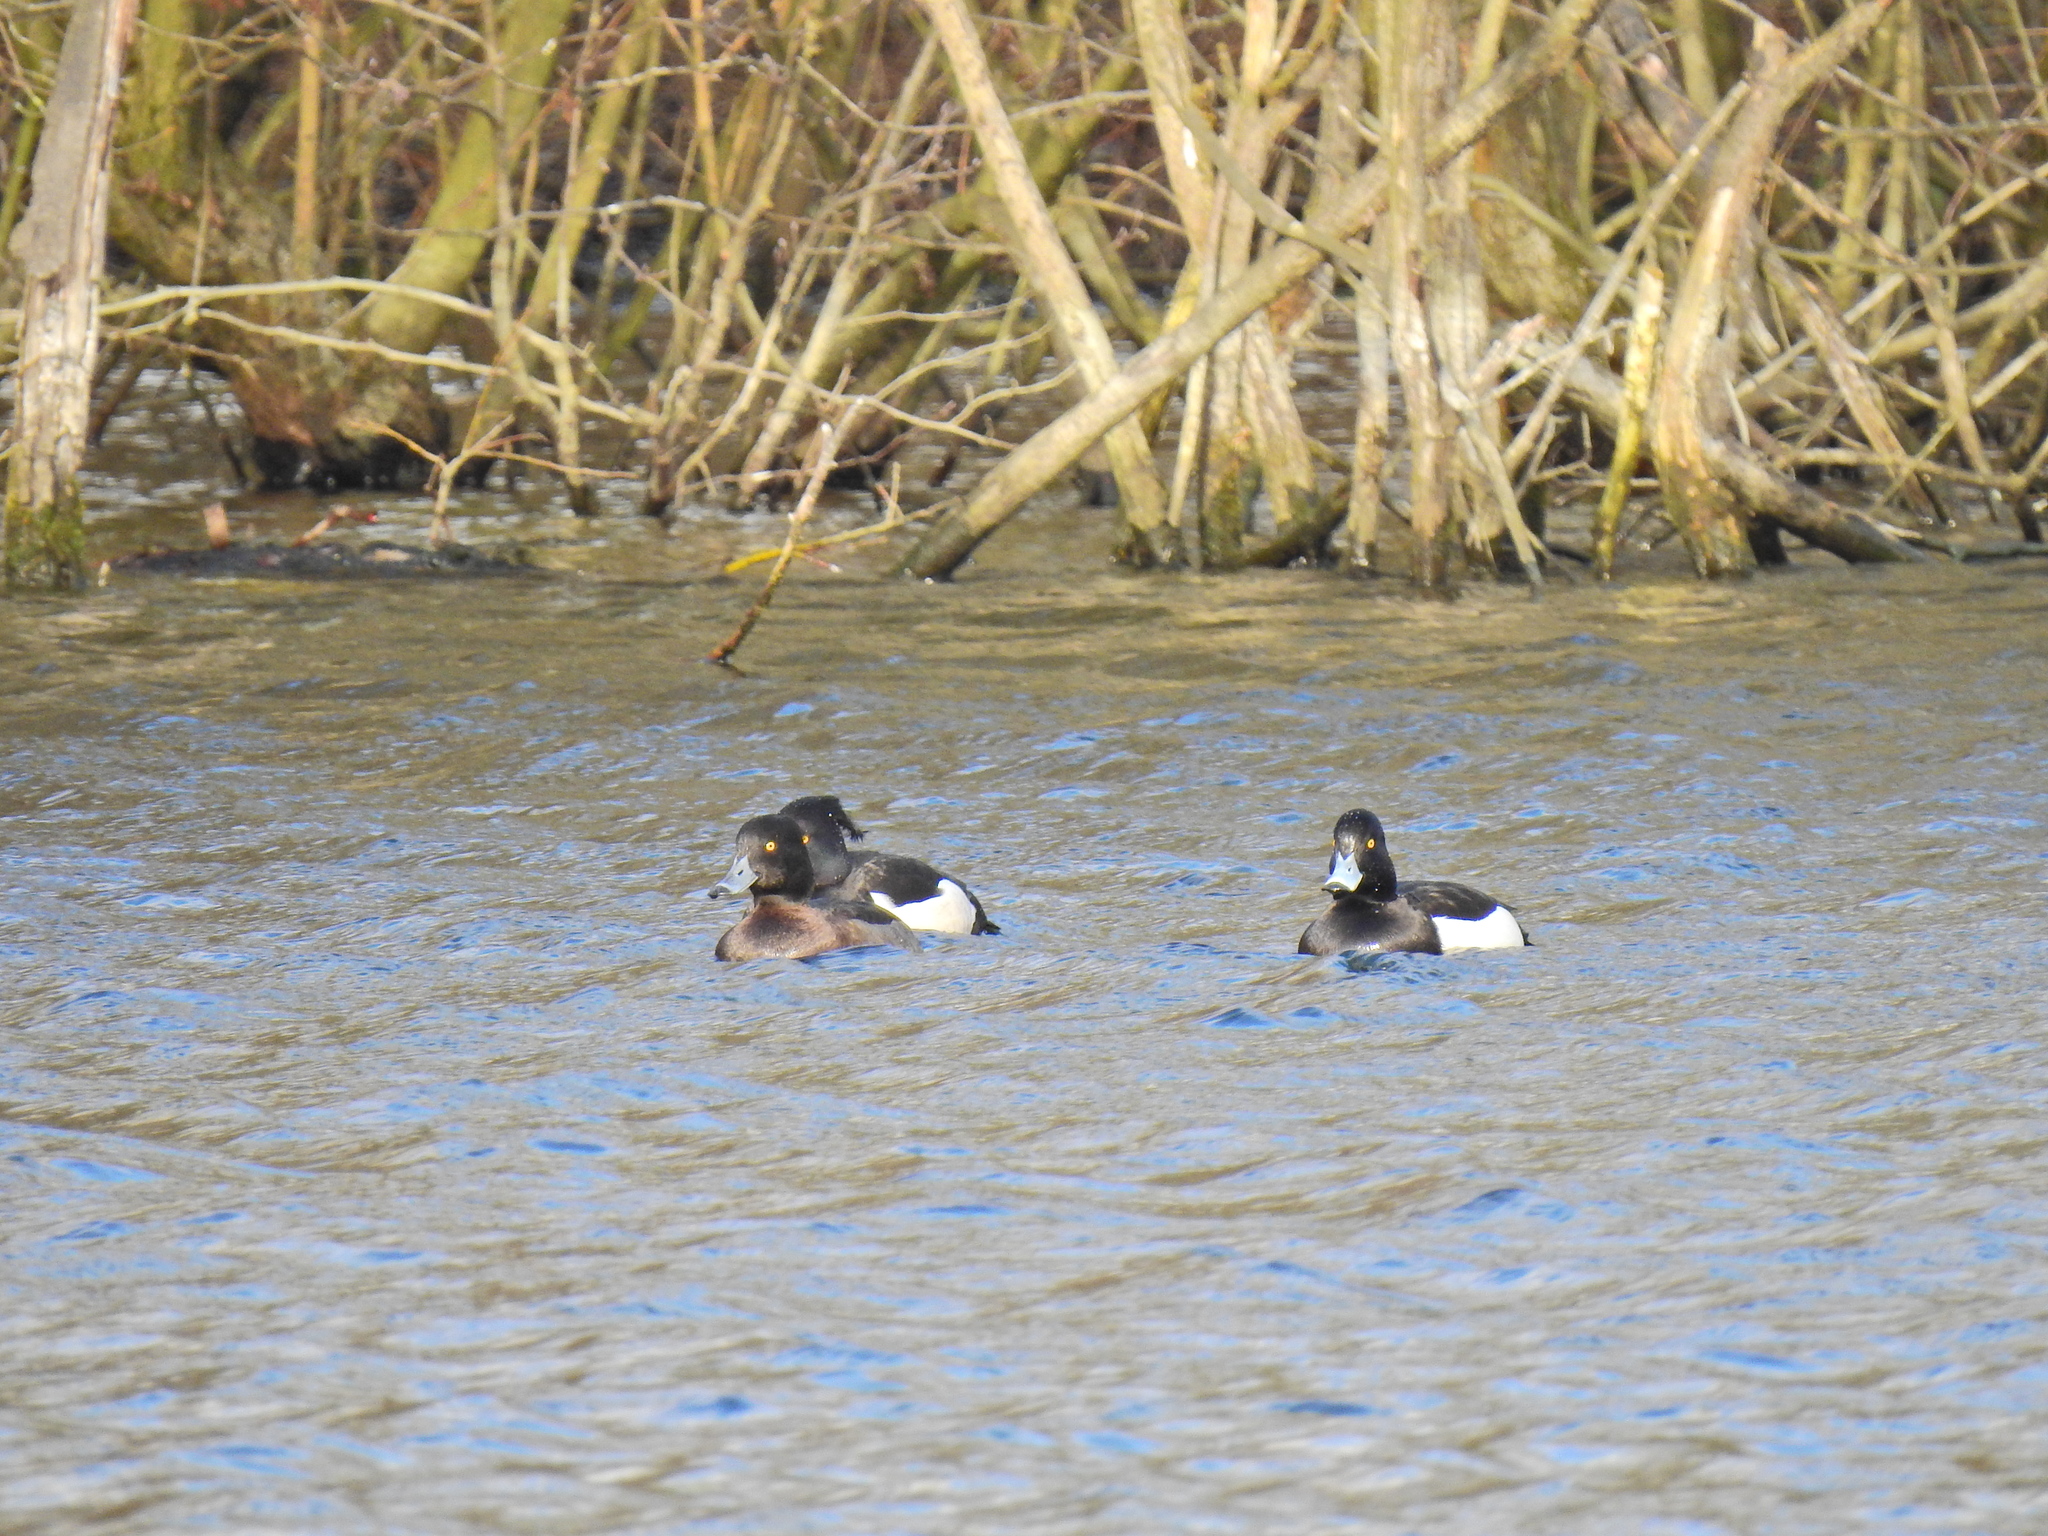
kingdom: Animalia
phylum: Chordata
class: Aves
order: Anseriformes
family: Anatidae
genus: Aythya
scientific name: Aythya fuligula
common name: Tufted duck
